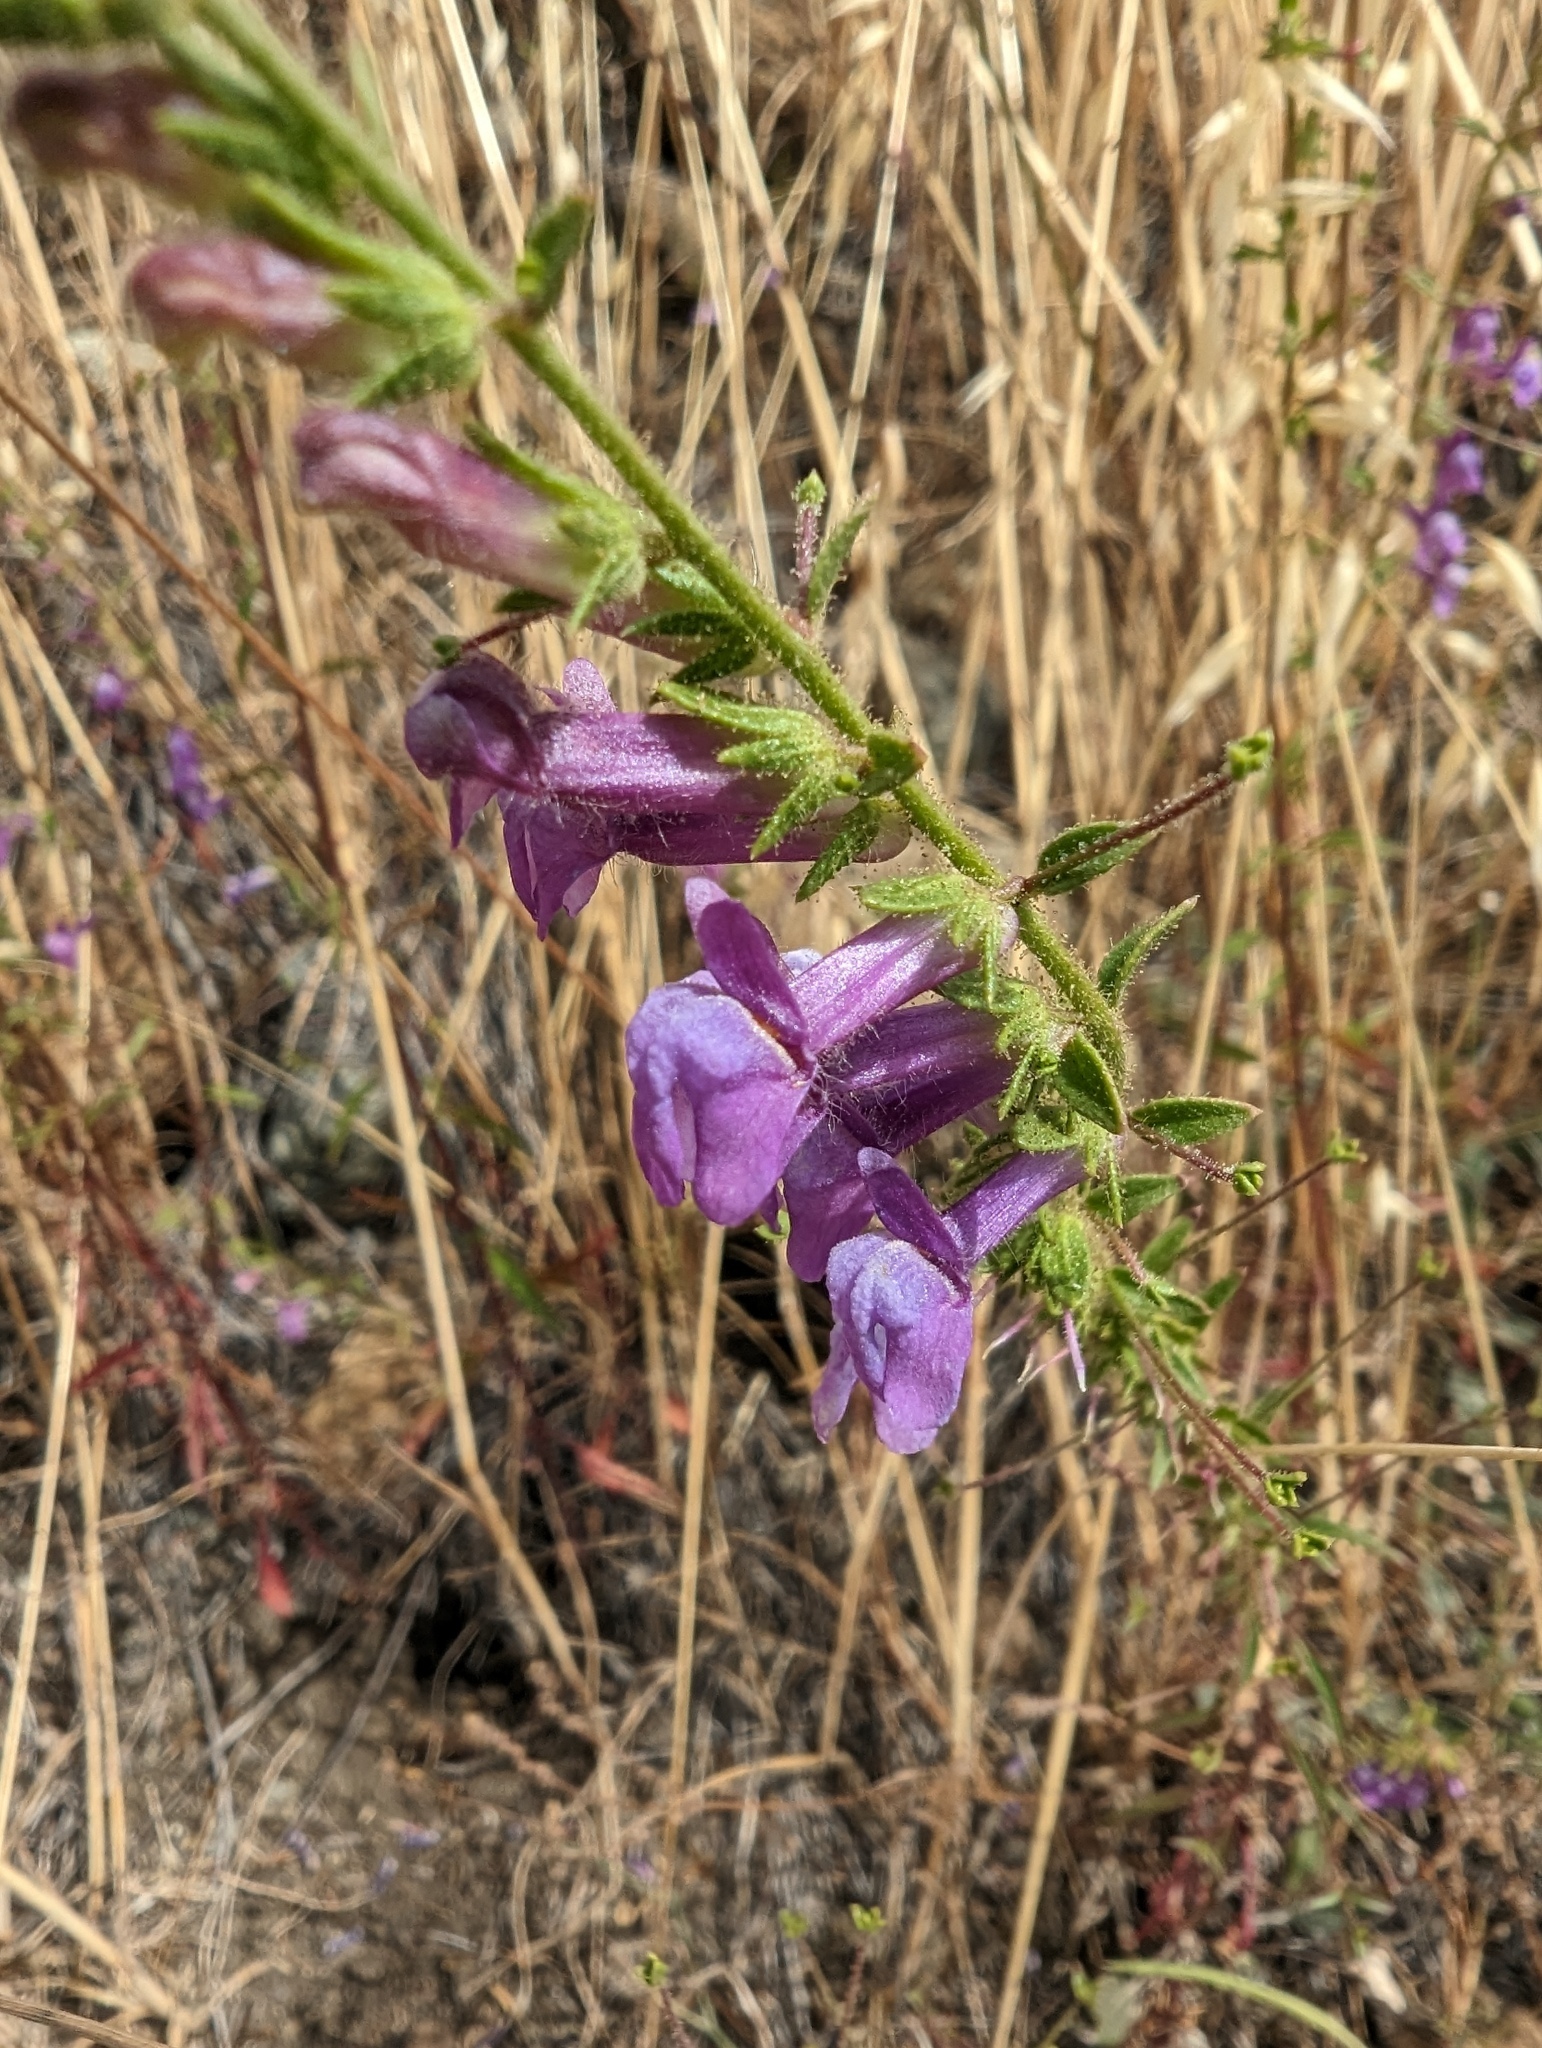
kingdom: Plantae
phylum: Tracheophyta
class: Magnoliopsida
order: Lamiales
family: Plantaginaceae
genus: Sairocarpus
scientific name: Sairocarpus vexillocalyculatus
